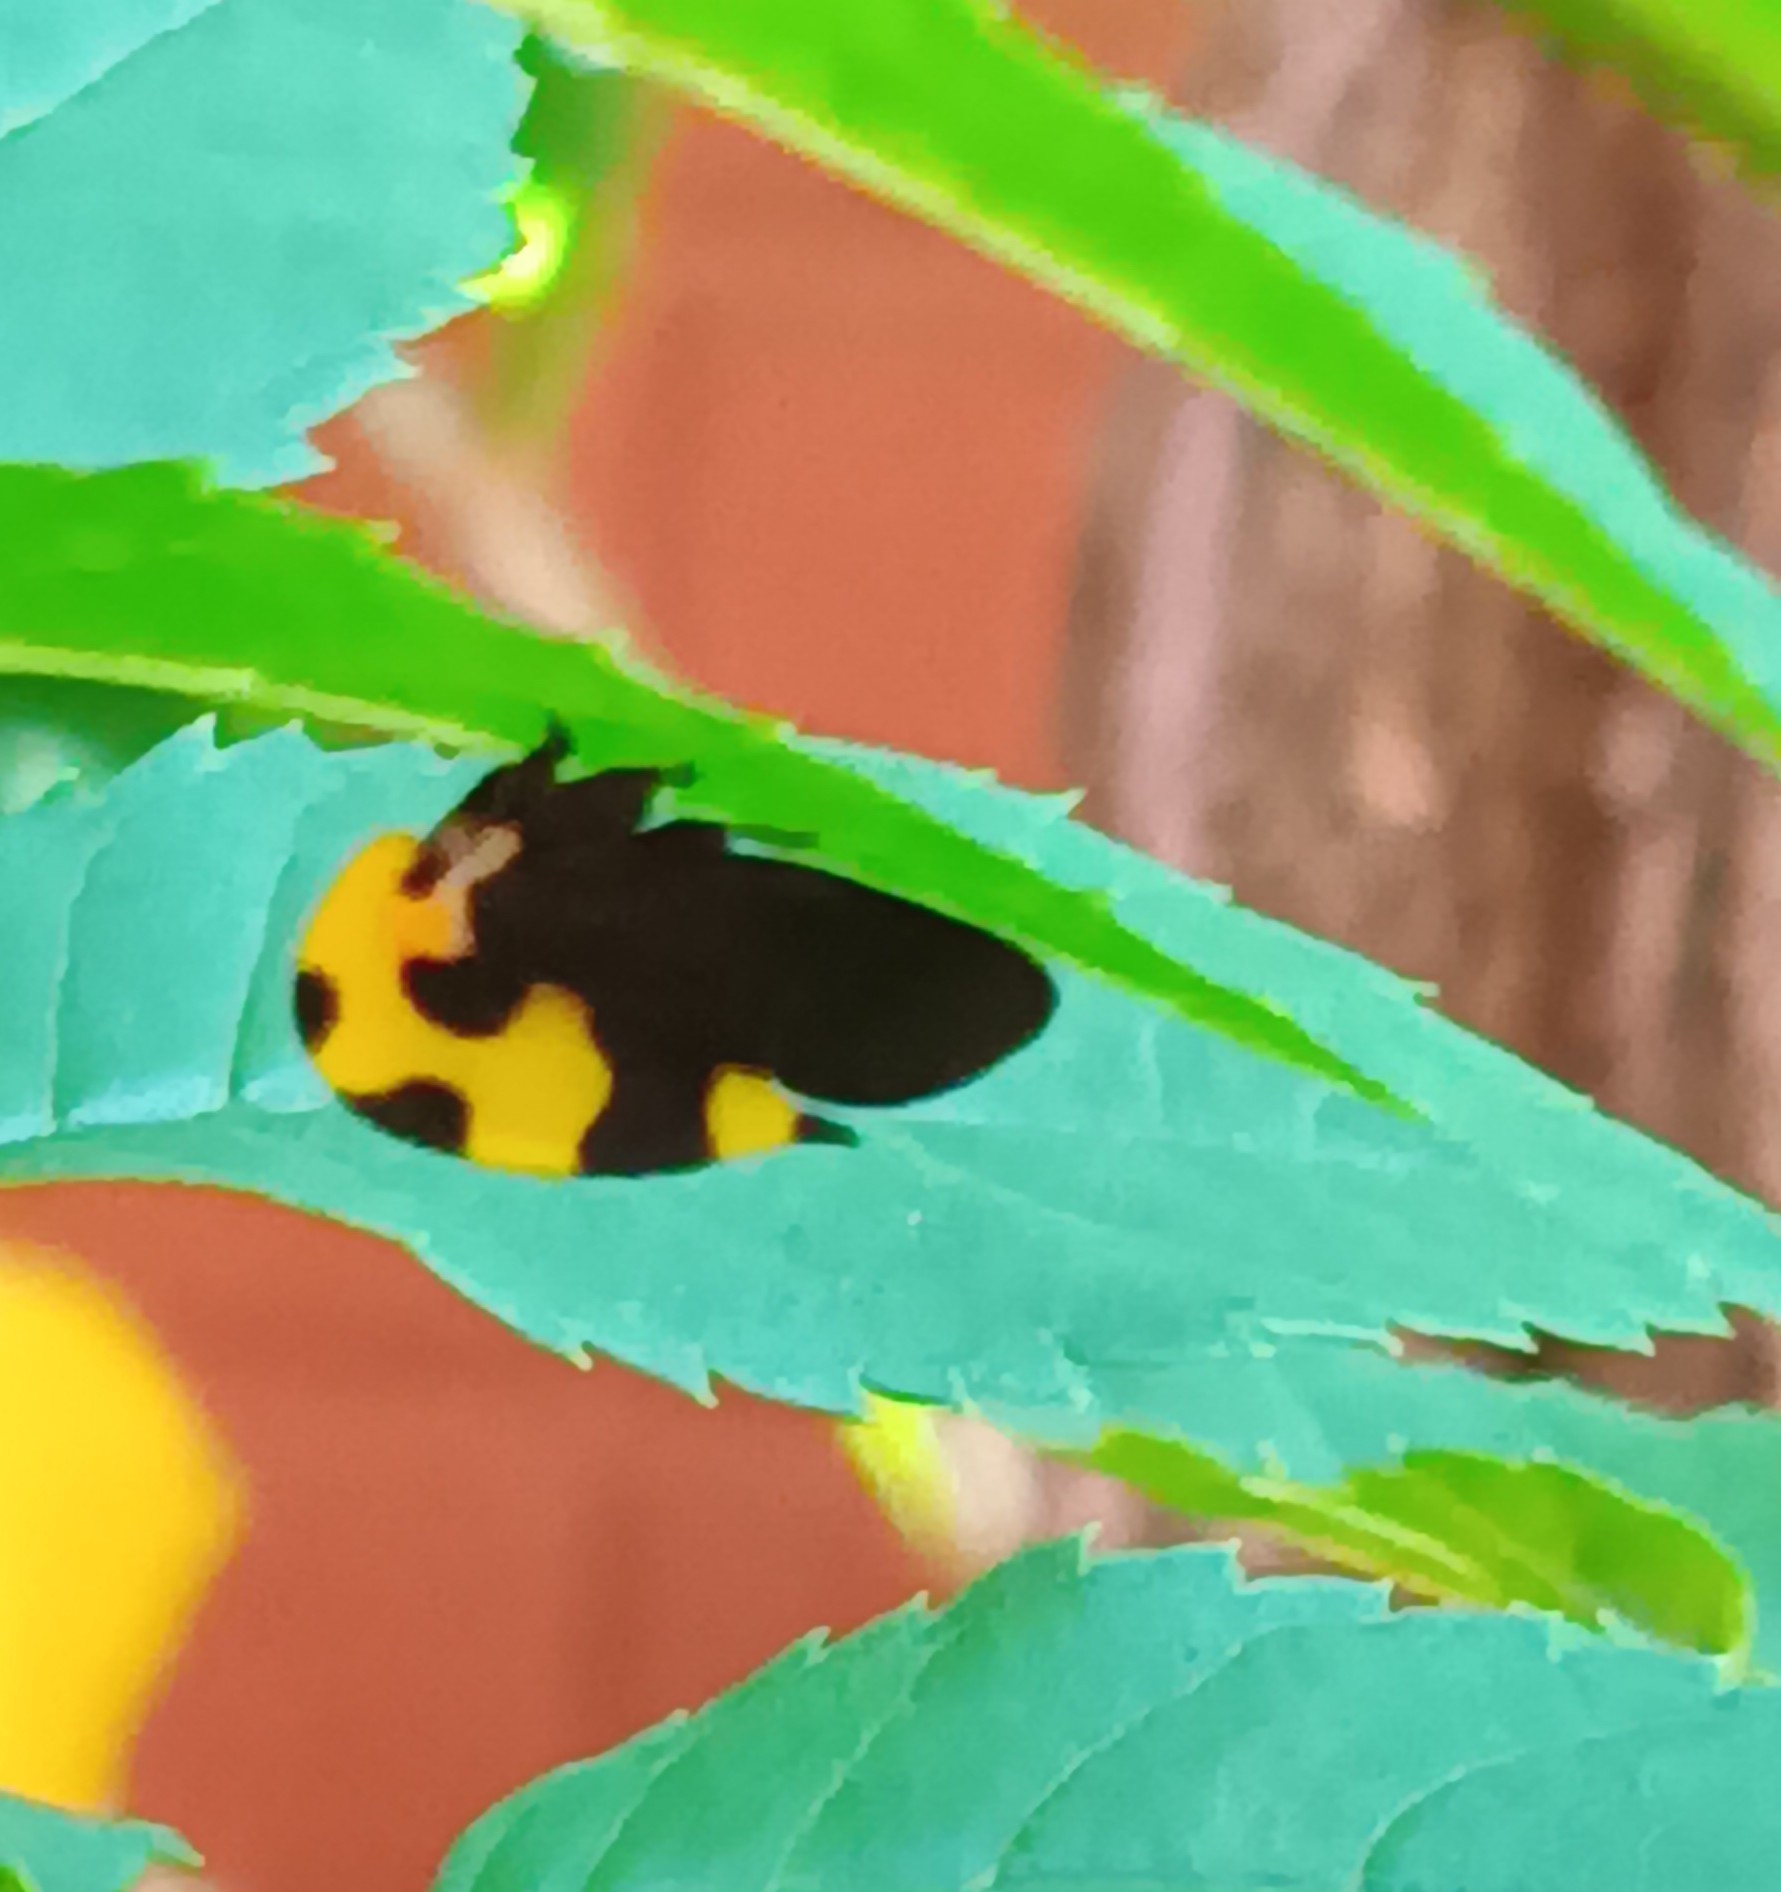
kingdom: Animalia
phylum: Arthropoda
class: Insecta
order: Hemiptera
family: Membracidae
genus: Membracis
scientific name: Membracis mexicana
